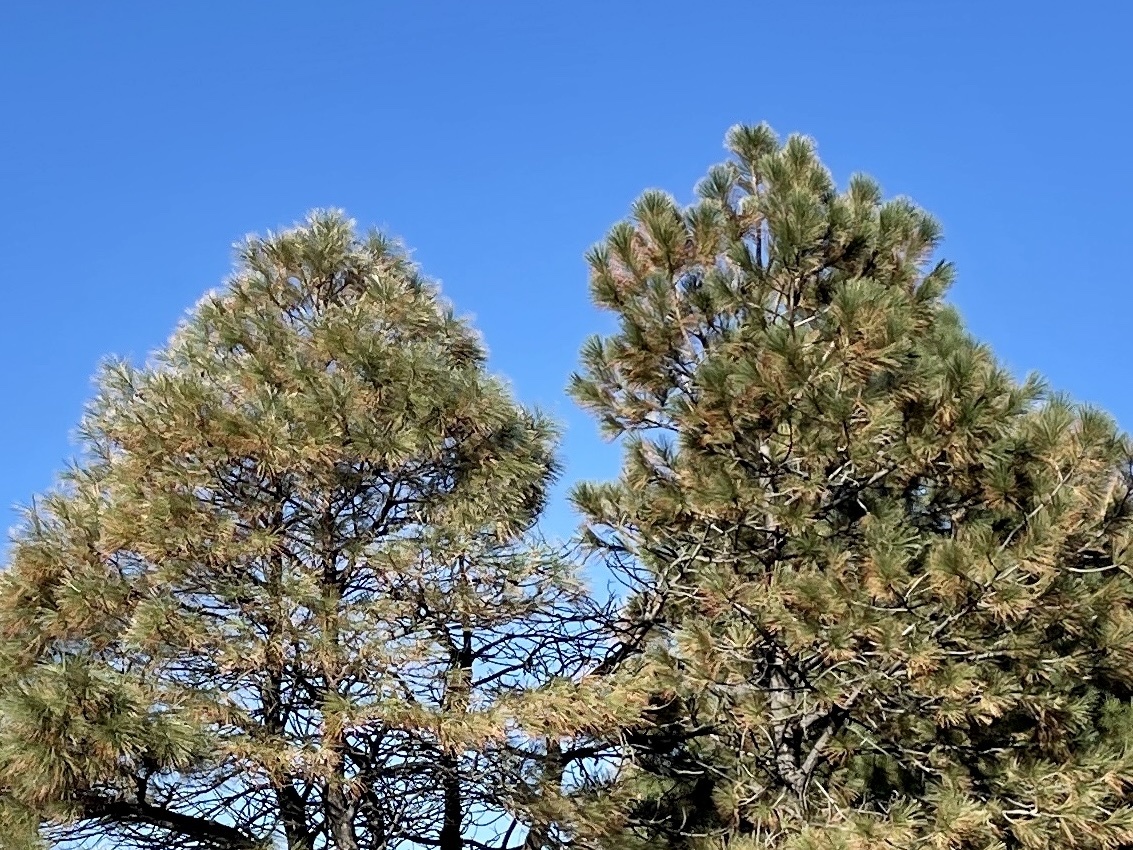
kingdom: Plantae
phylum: Tracheophyta
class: Pinopsida
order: Pinales
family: Pinaceae
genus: Pinus
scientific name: Pinus ponderosa
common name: Western yellow-pine
